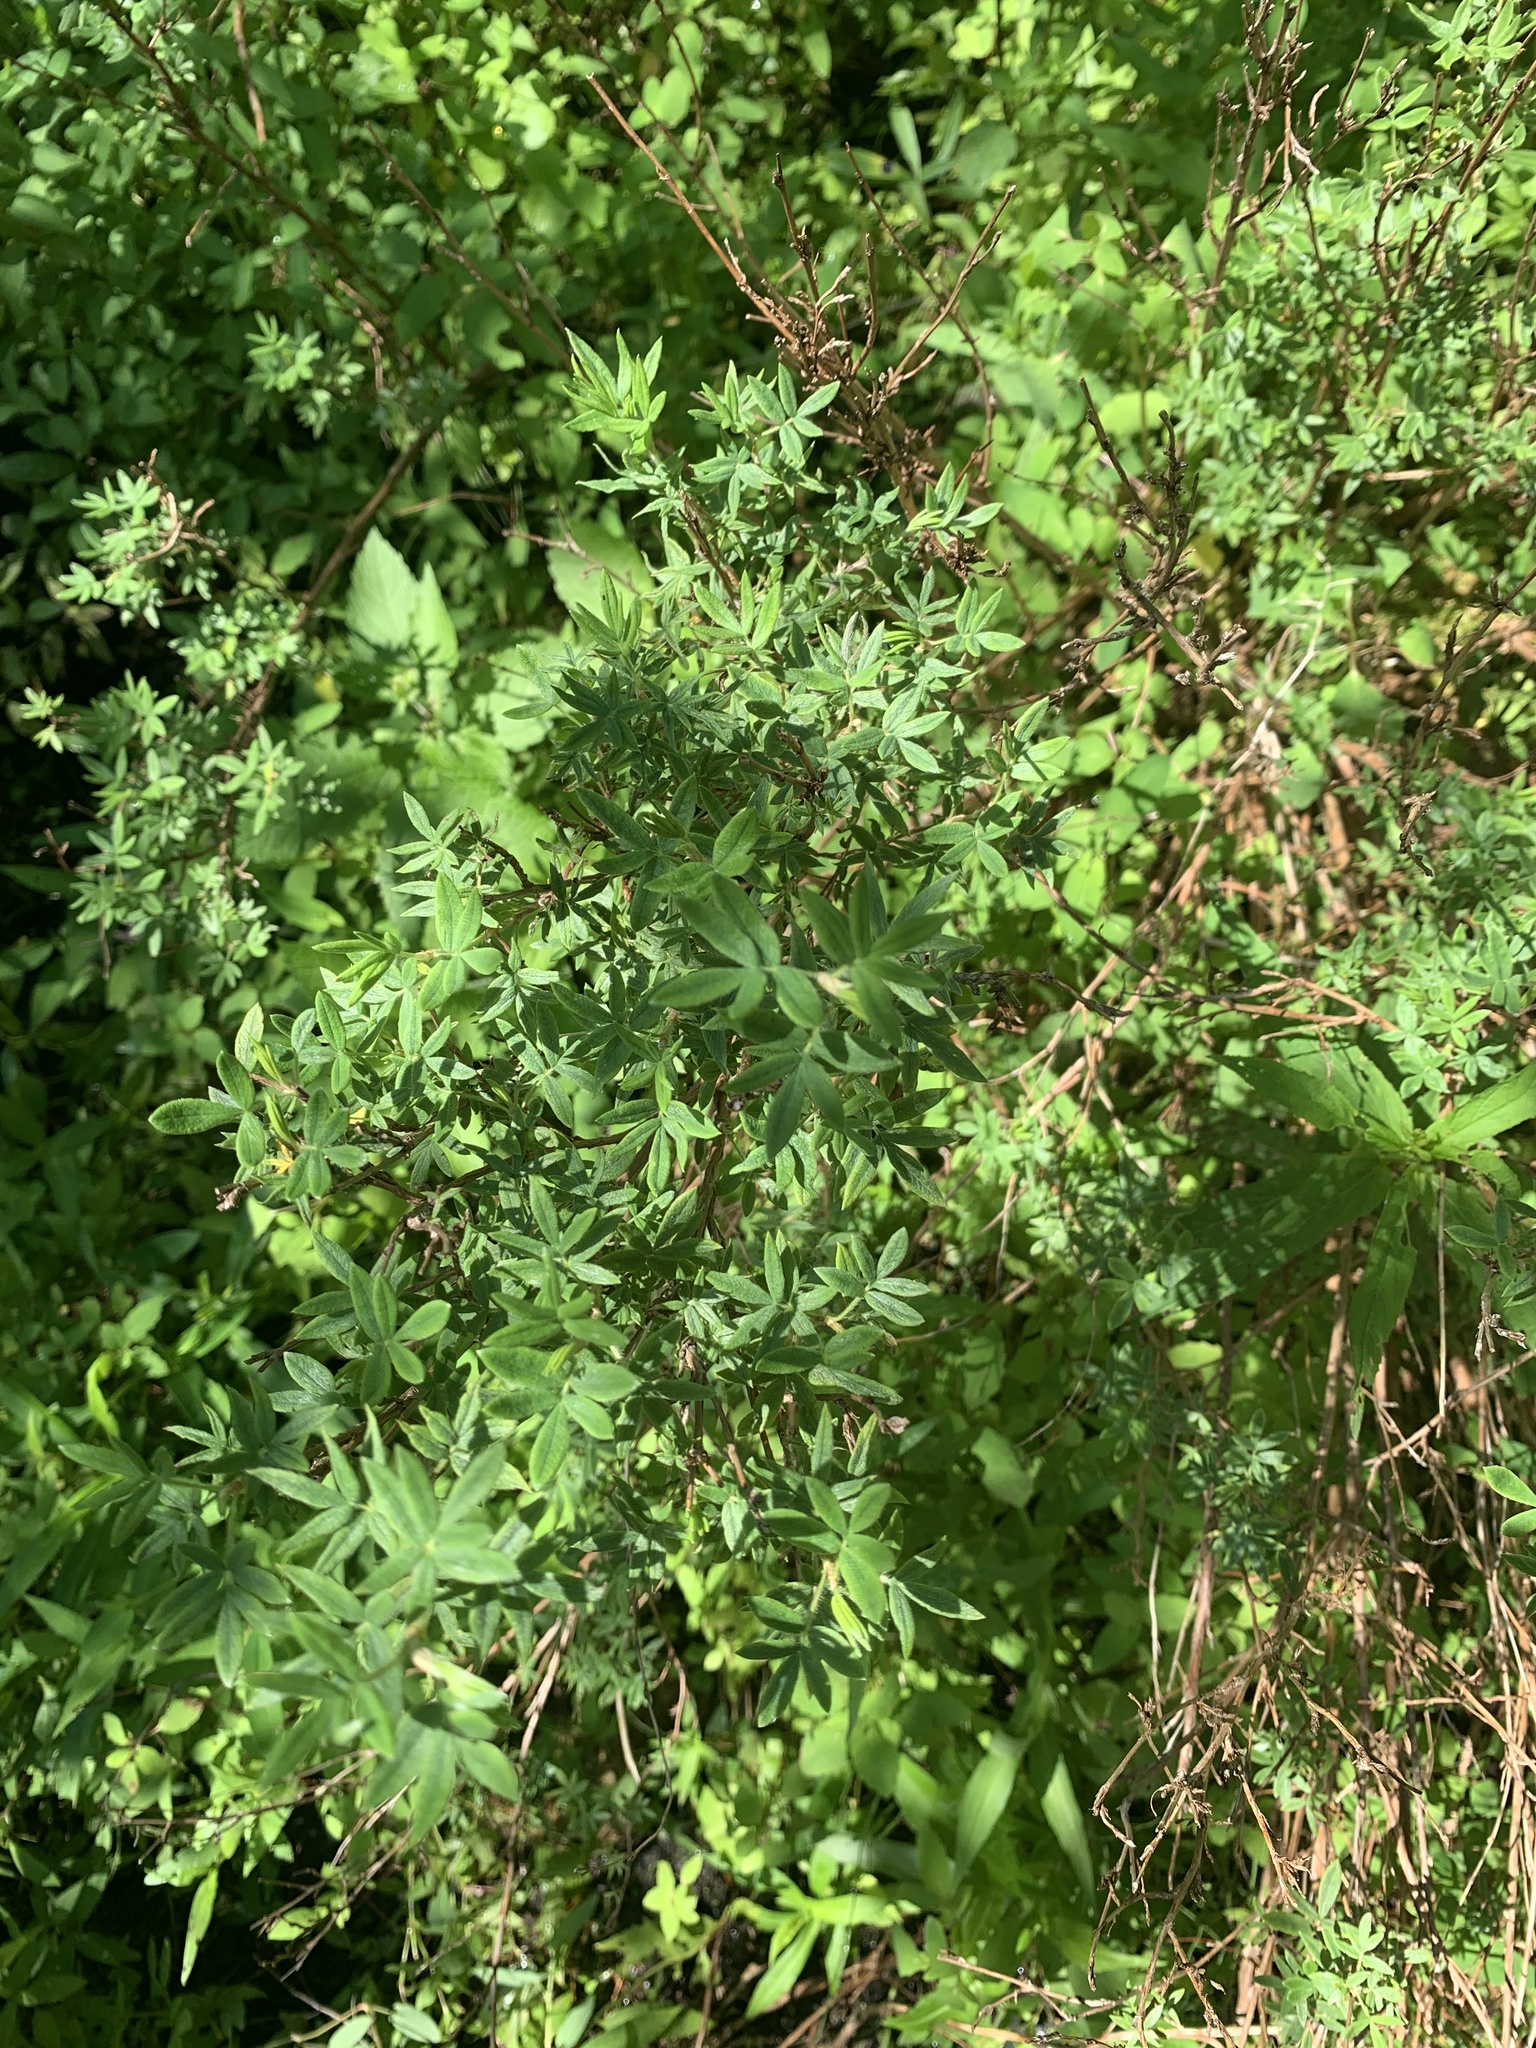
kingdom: Plantae
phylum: Tracheophyta
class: Magnoliopsida
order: Rosales
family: Rosaceae
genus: Dasiphora
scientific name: Dasiphora fruticosa
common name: Shrubby cinquefoil
